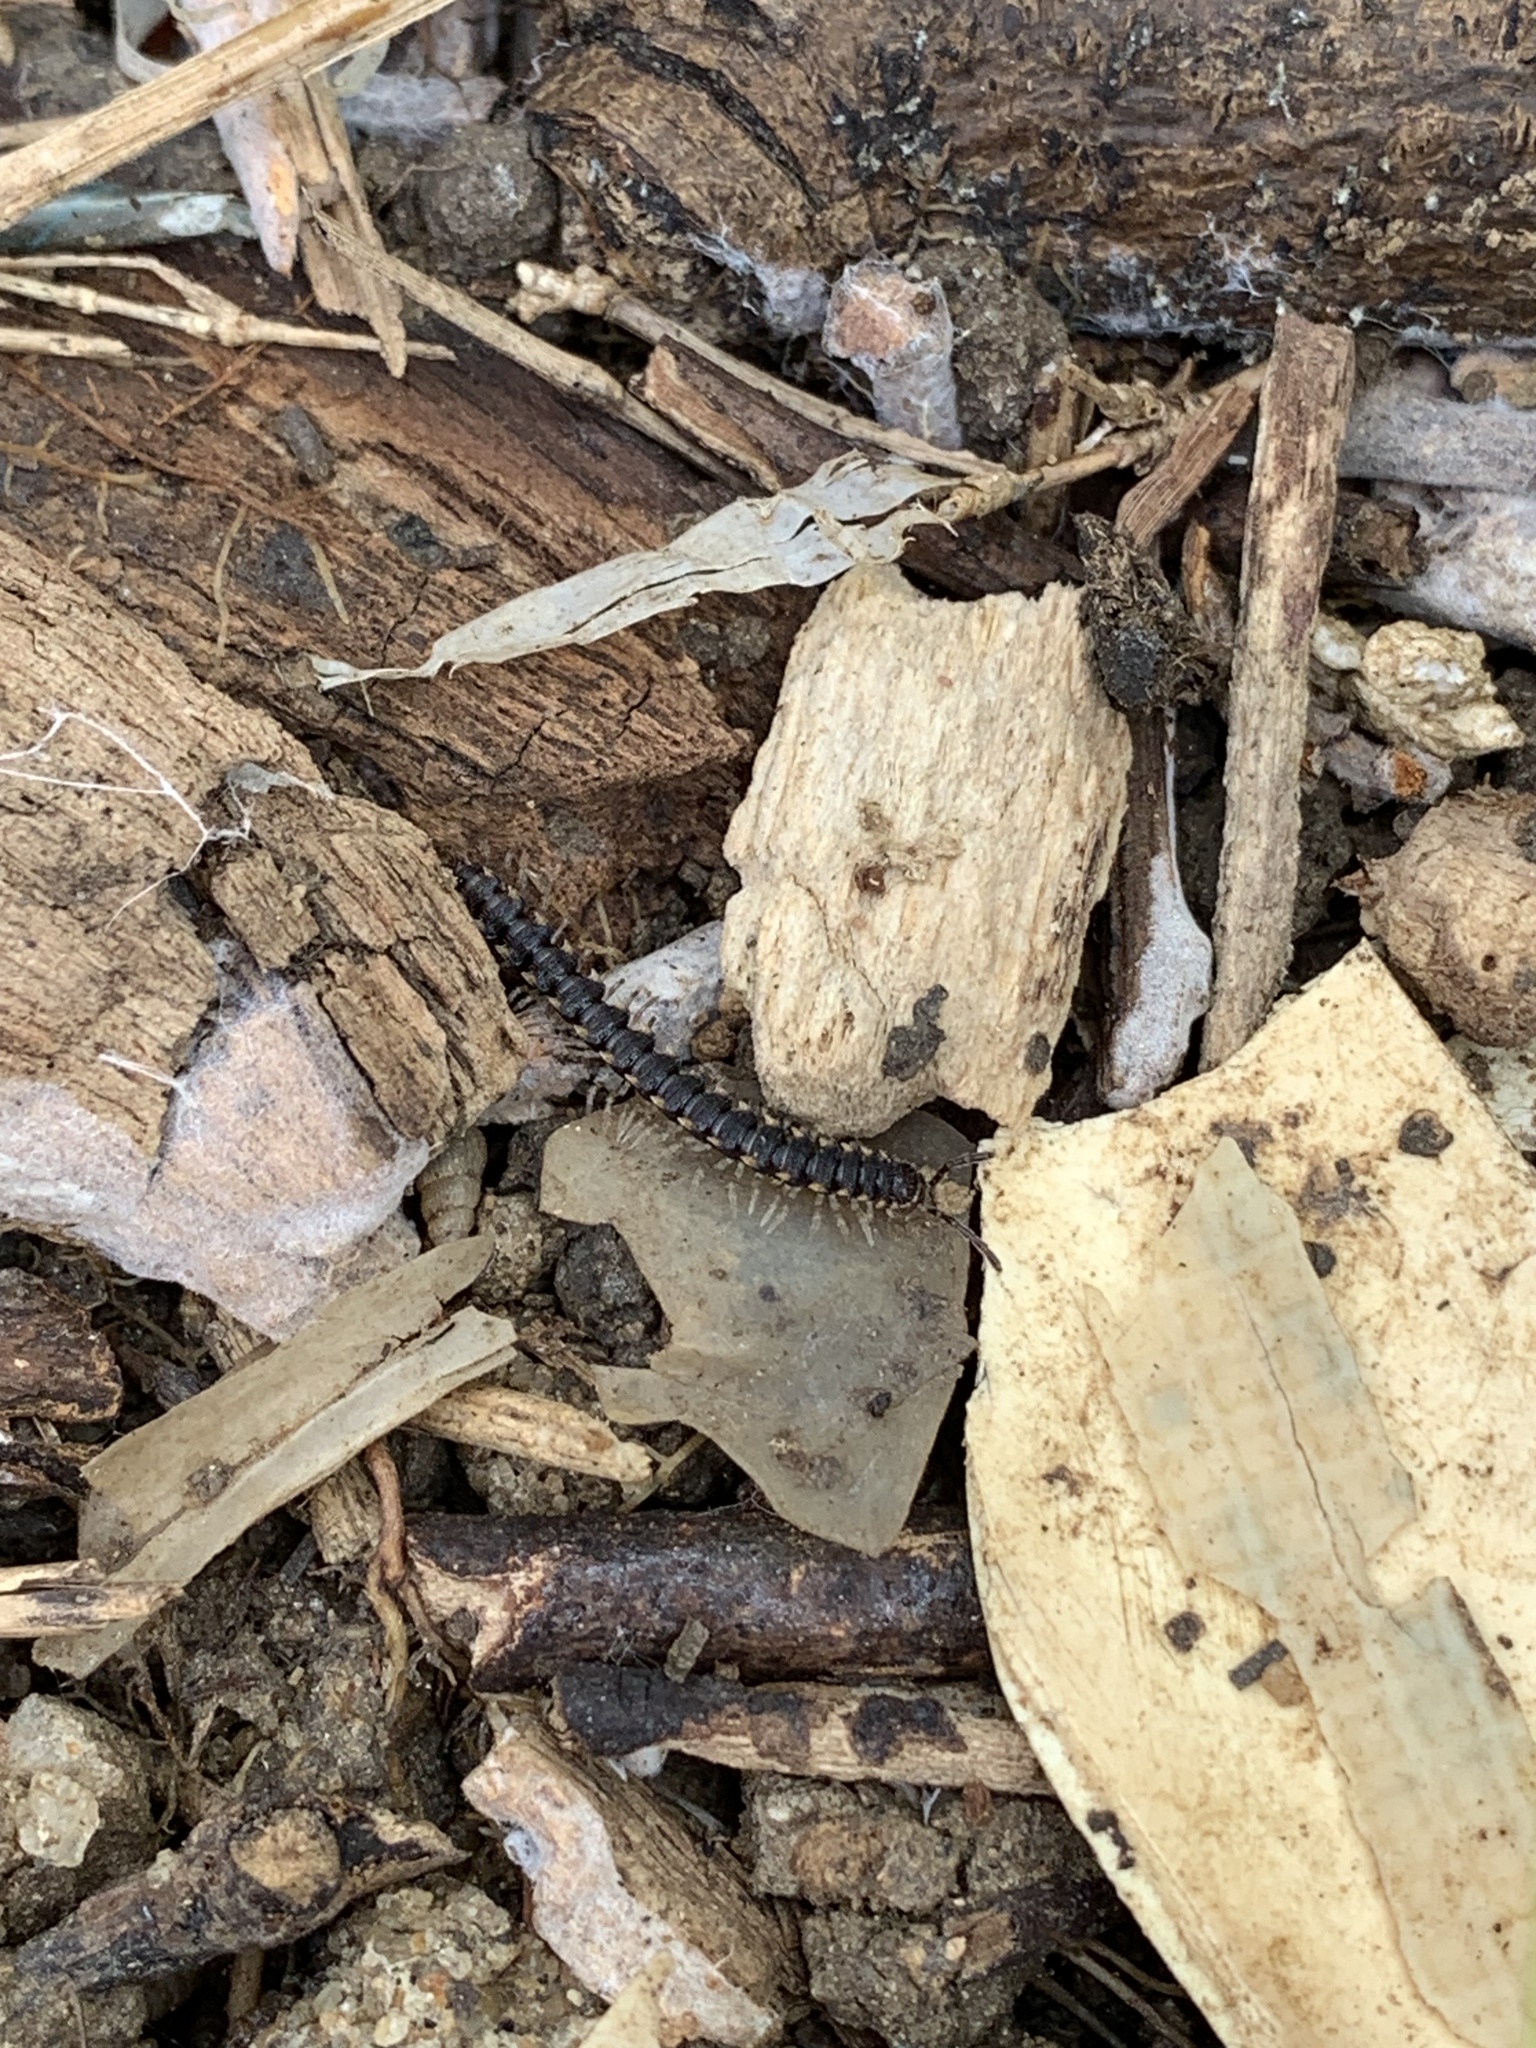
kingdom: Animalia
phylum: Arthropoda
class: Diplopoda
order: Polydesmida
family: Paradoxosomatidae
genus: Chondromorpha
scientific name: Chondromorpha xanthotricha
